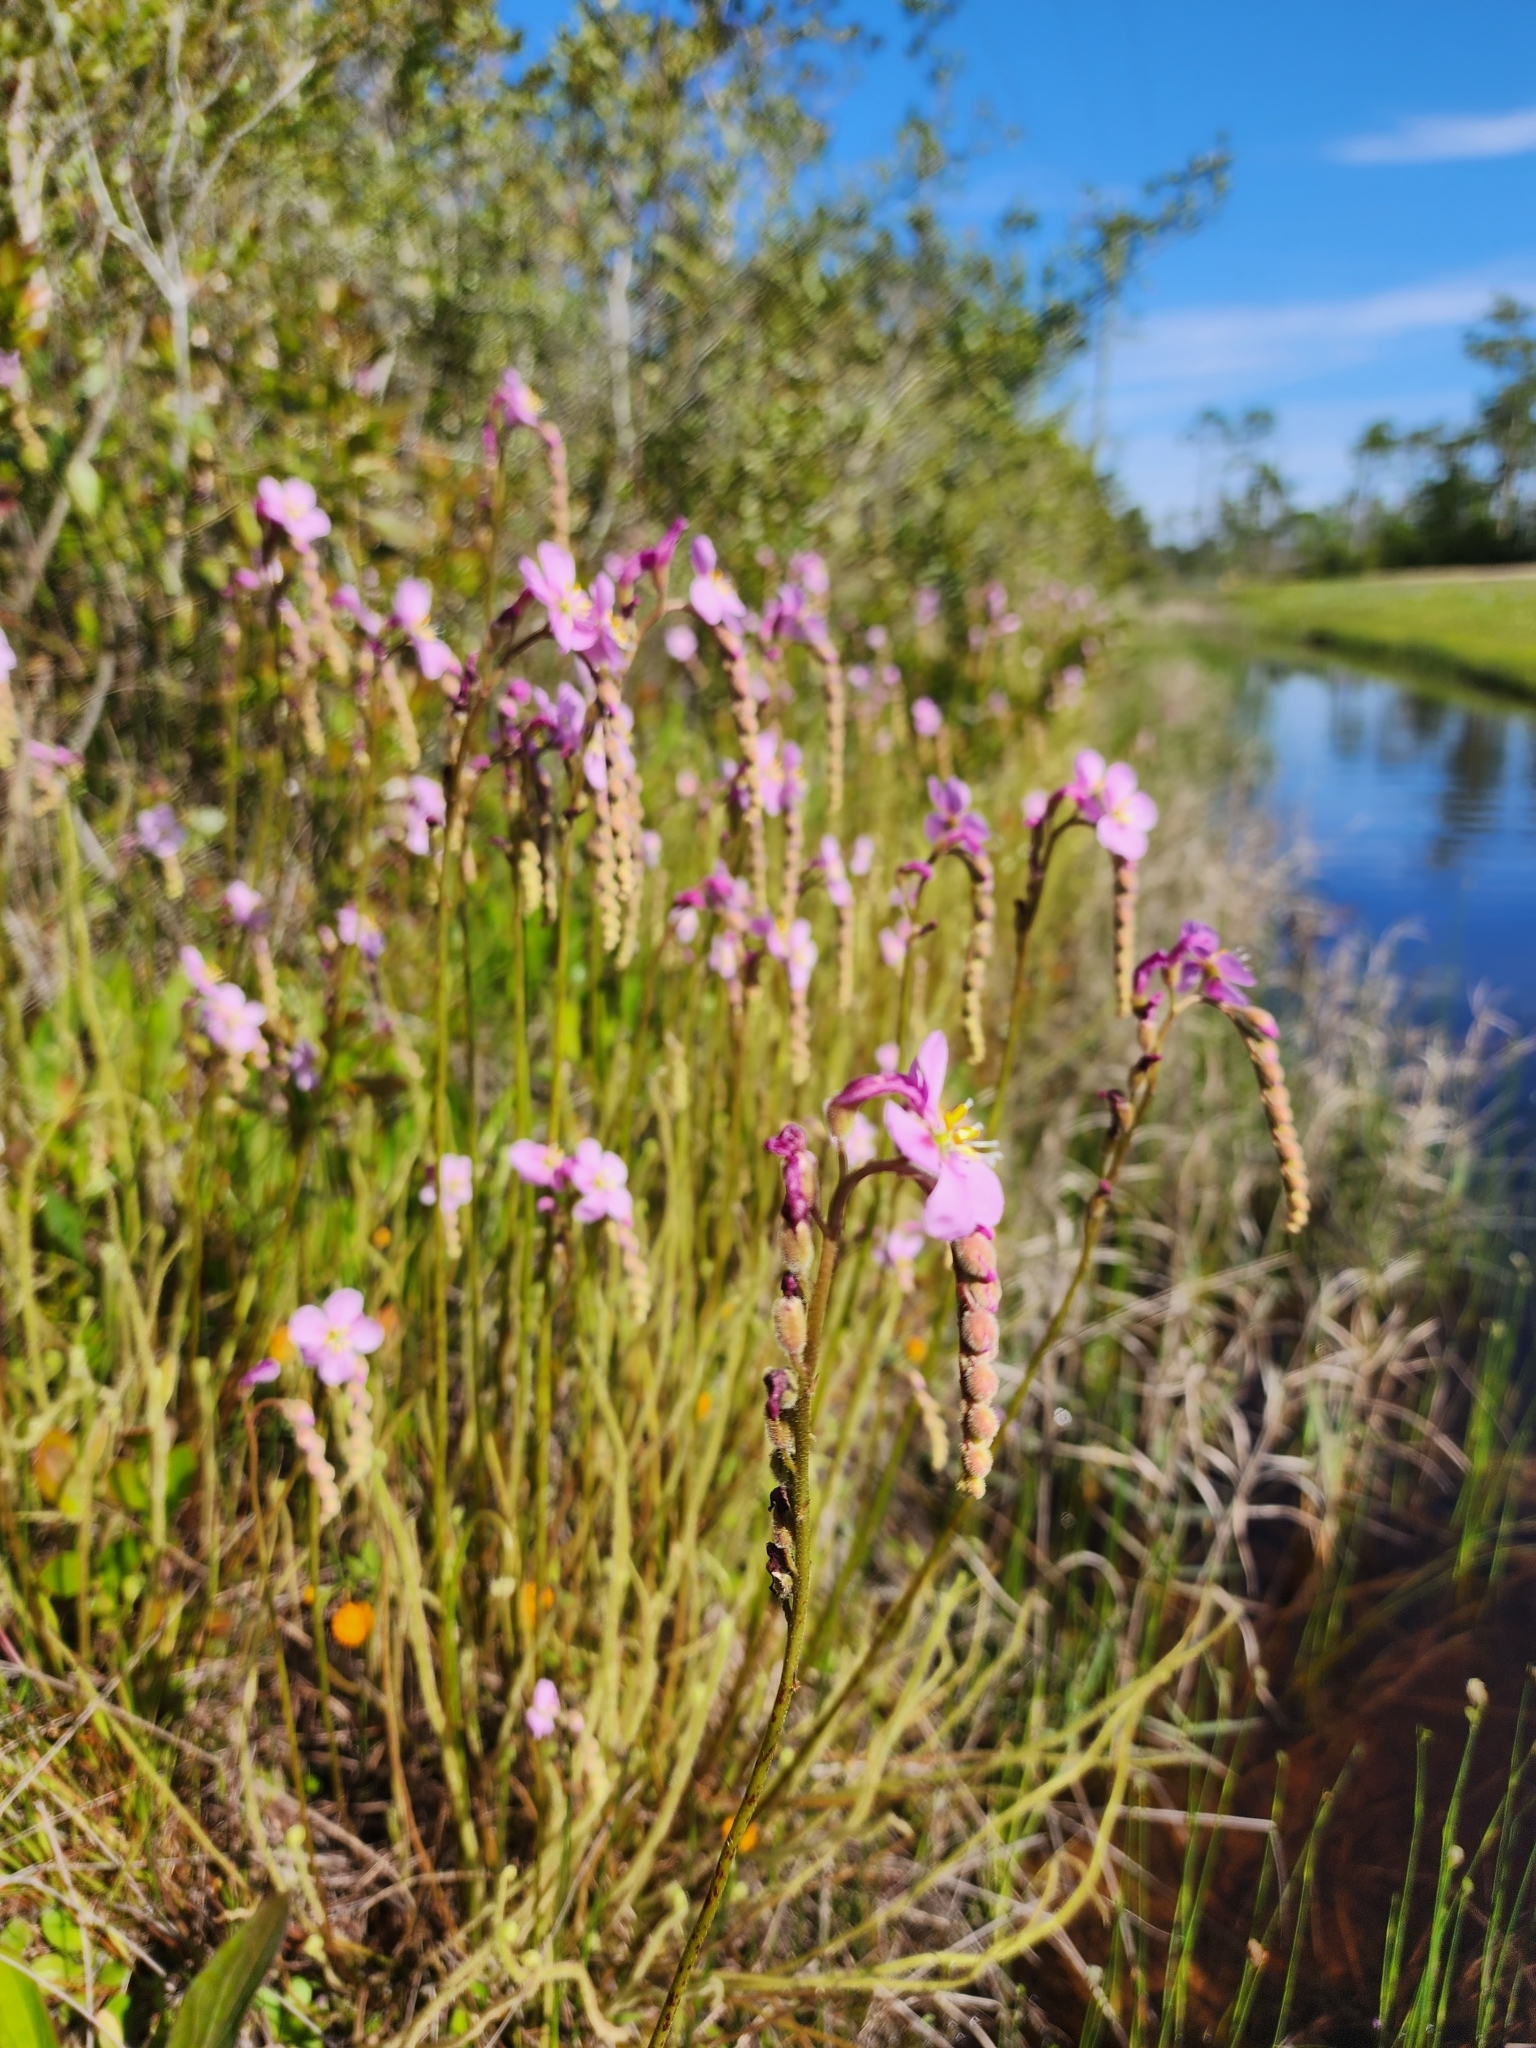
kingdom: Plantae
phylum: Tracheophyta
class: Magnoliopsida
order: Caryophyllales
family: Droseraceae
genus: Drosera
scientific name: Drosera filiformis
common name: Dew-thread
